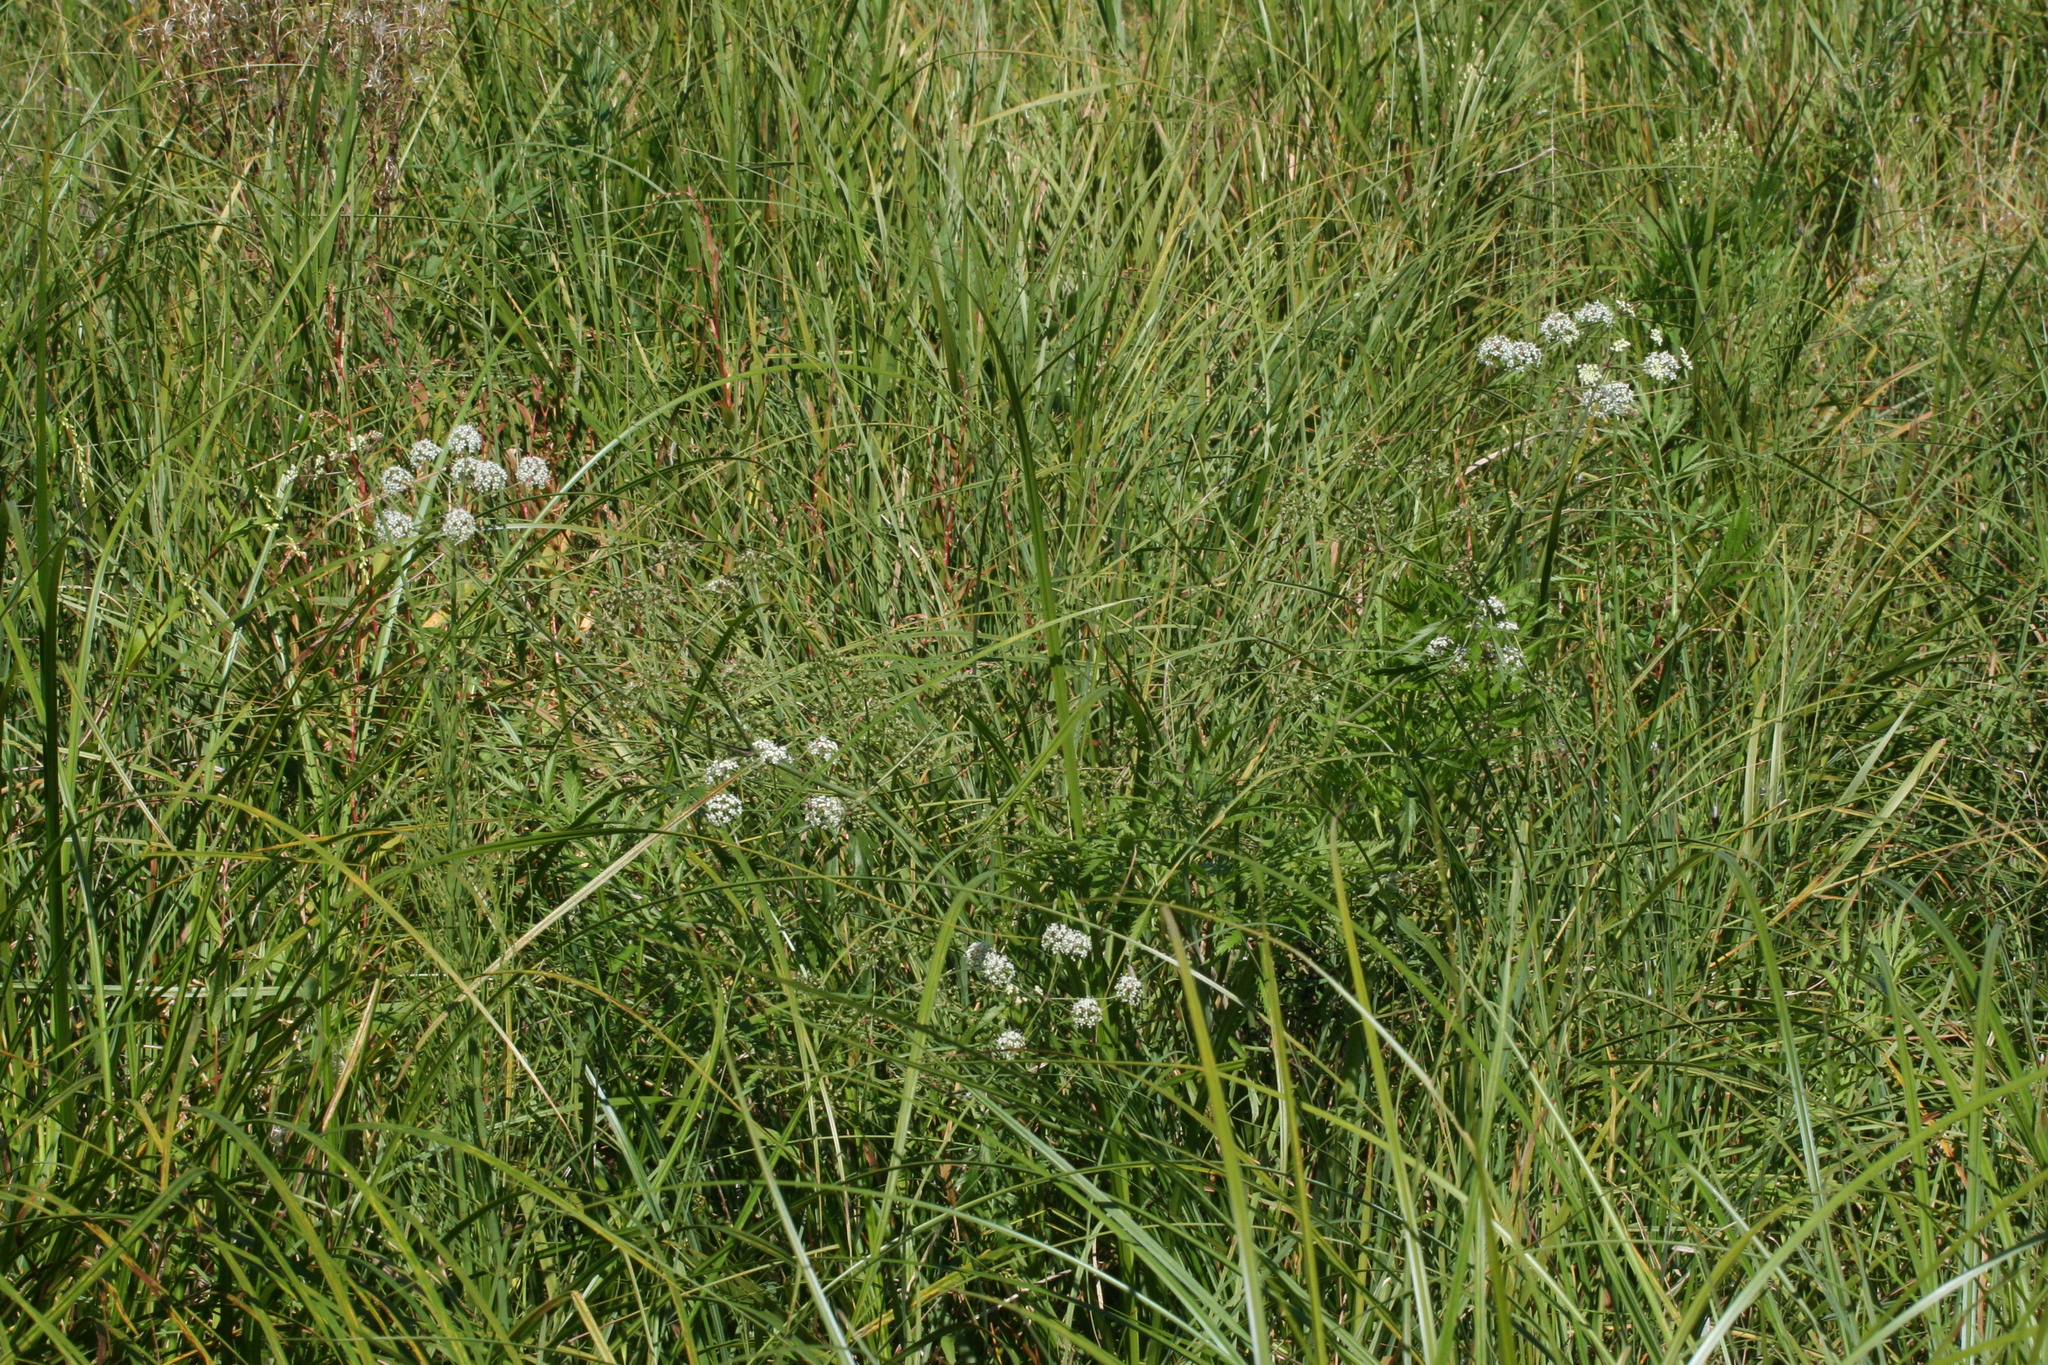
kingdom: Plantae
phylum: Tracheophyta
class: Magnoliopsida
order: Apiales
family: Apiaceae
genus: Cicuta
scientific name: Cicuta virosa
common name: Cowbane
